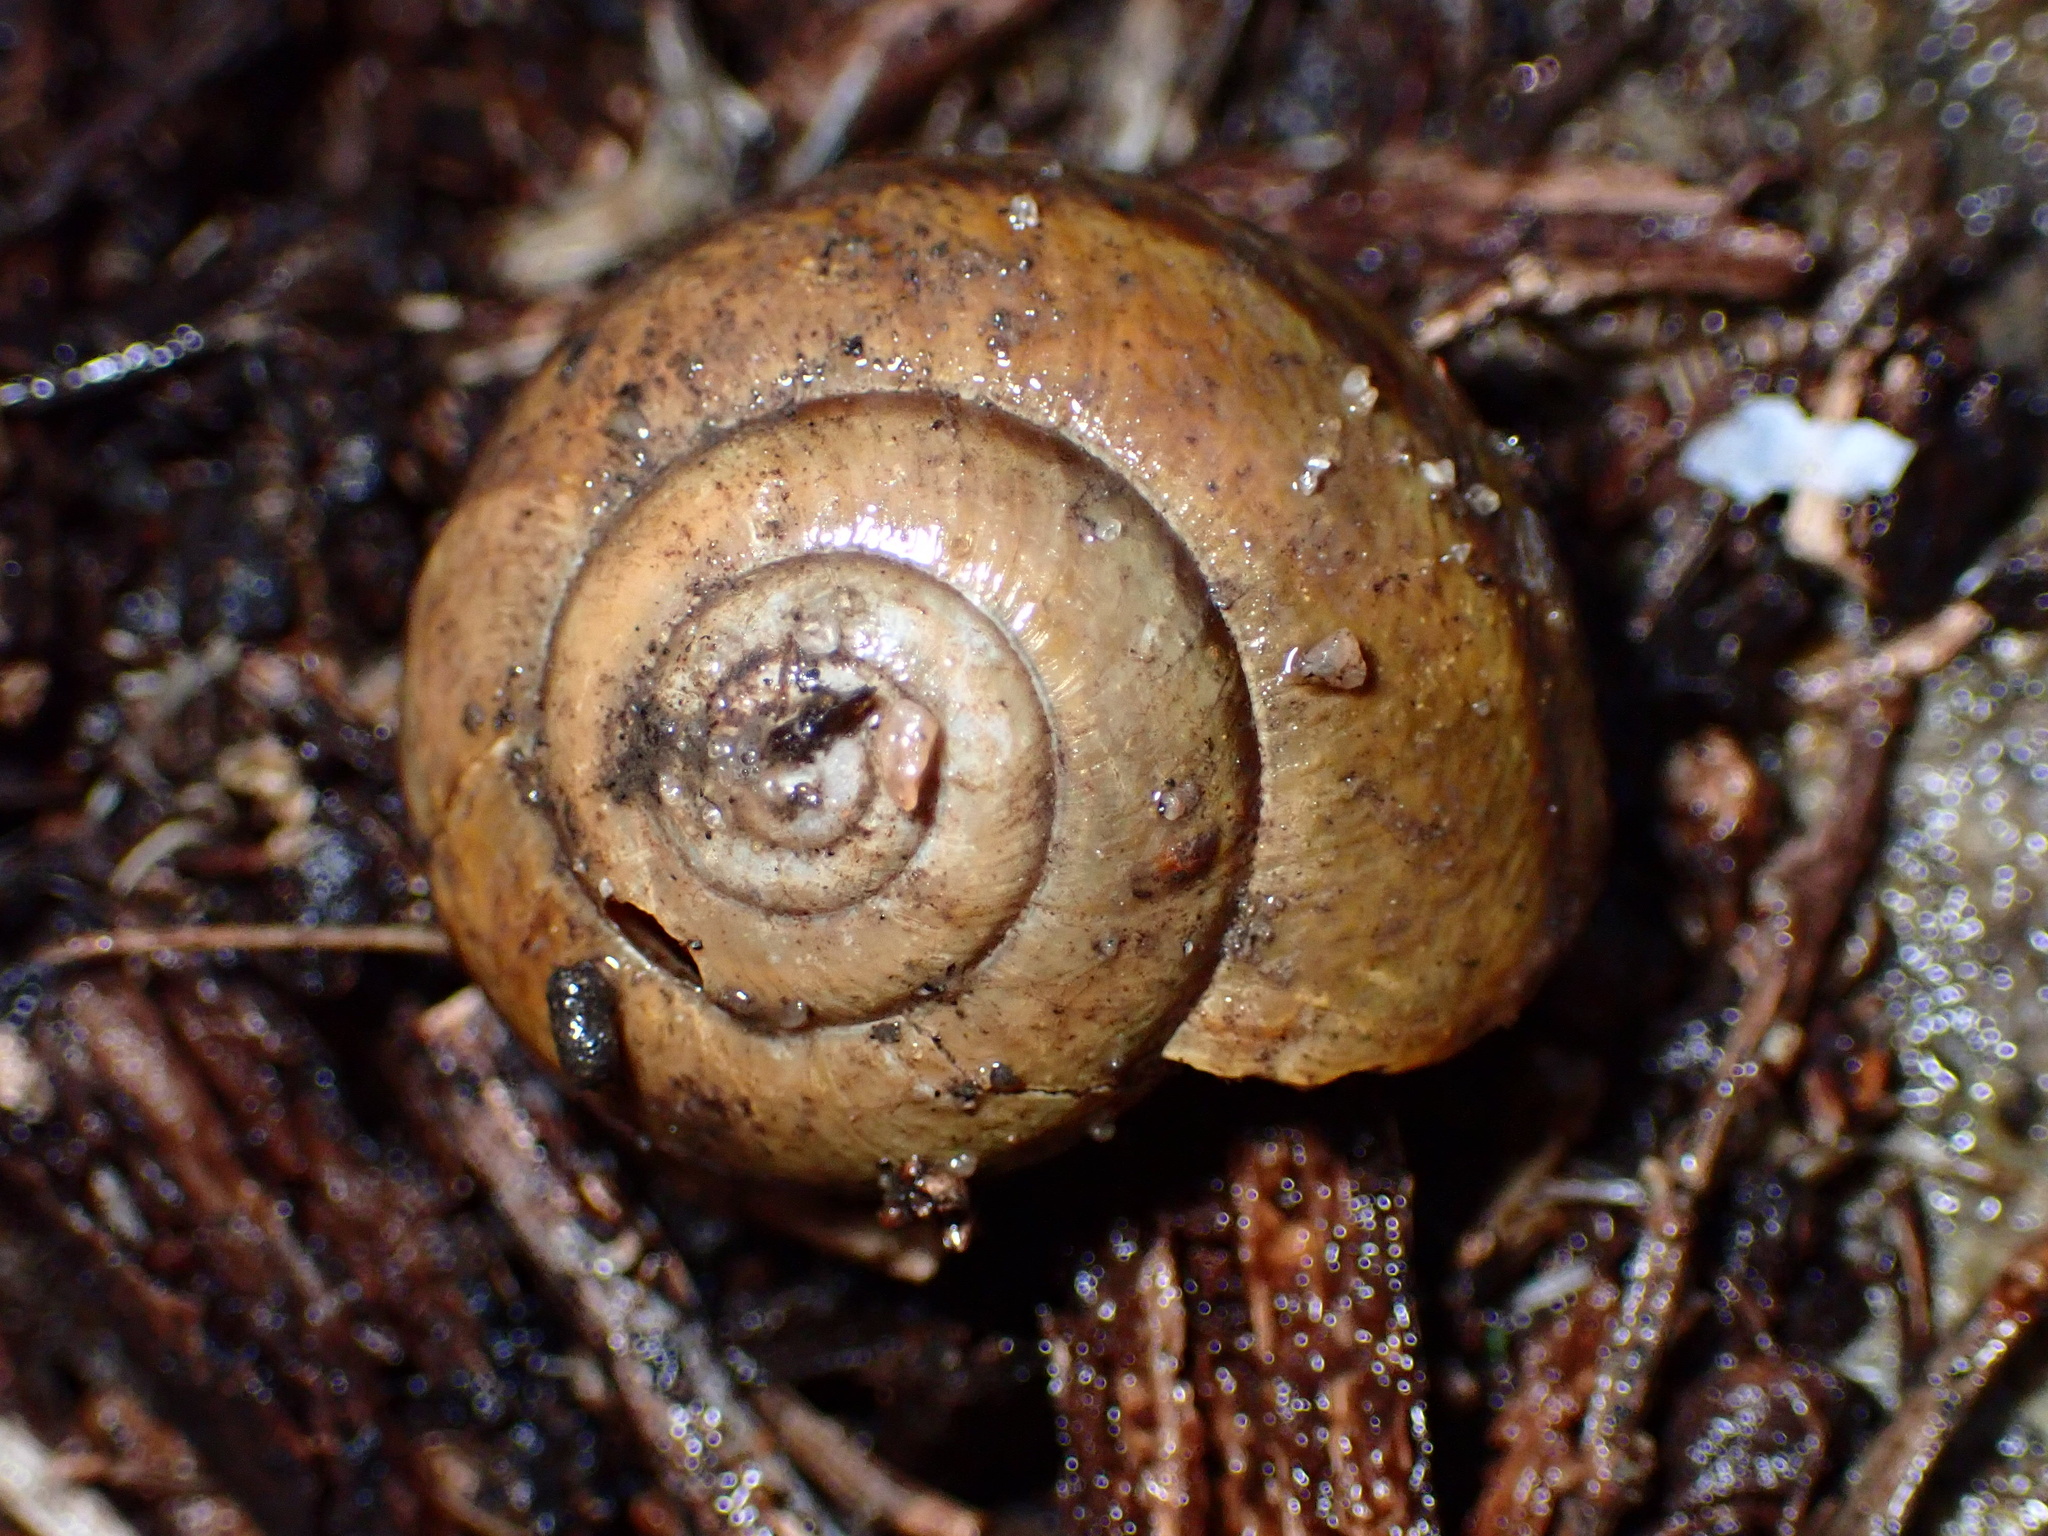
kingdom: Animalia
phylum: Mollusca
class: Gastropoda
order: Stylommatophora
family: Xanthonychidae
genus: Helminthoglypta
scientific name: Helminthoglypta tudiculata
